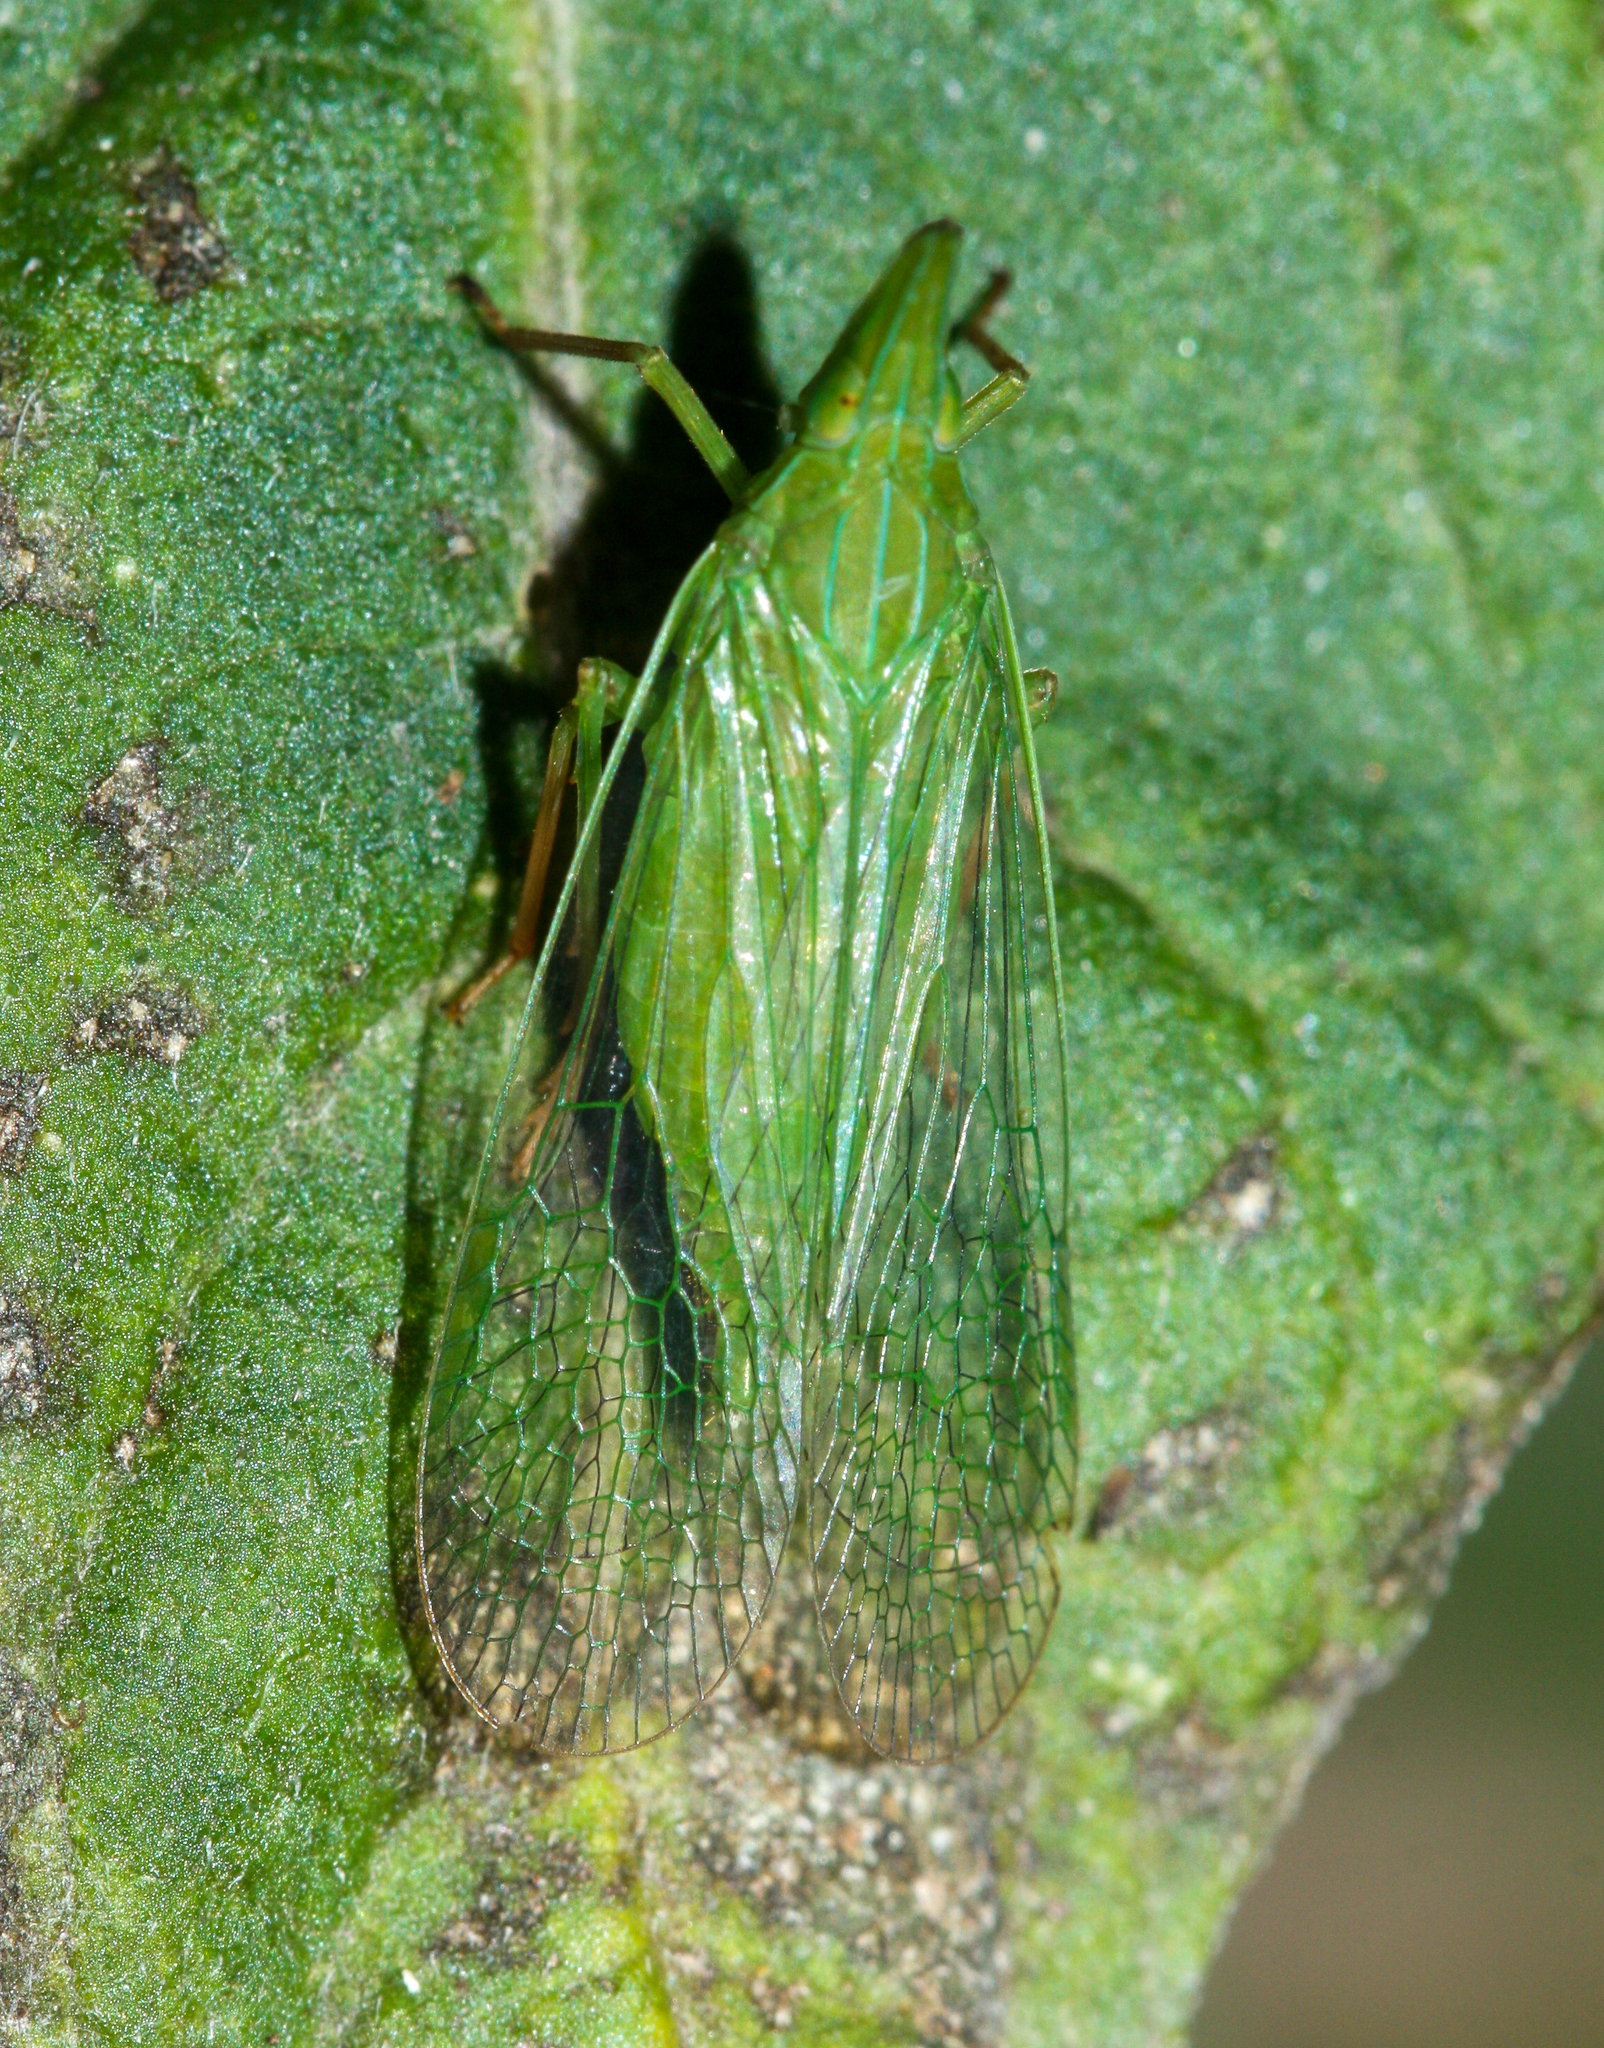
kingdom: Animalia
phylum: Arthropoda
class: Insecta
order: Hemiptera
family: Dictyopharidae
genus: Rhynchomitra
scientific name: Rhynchomitra microrhina
